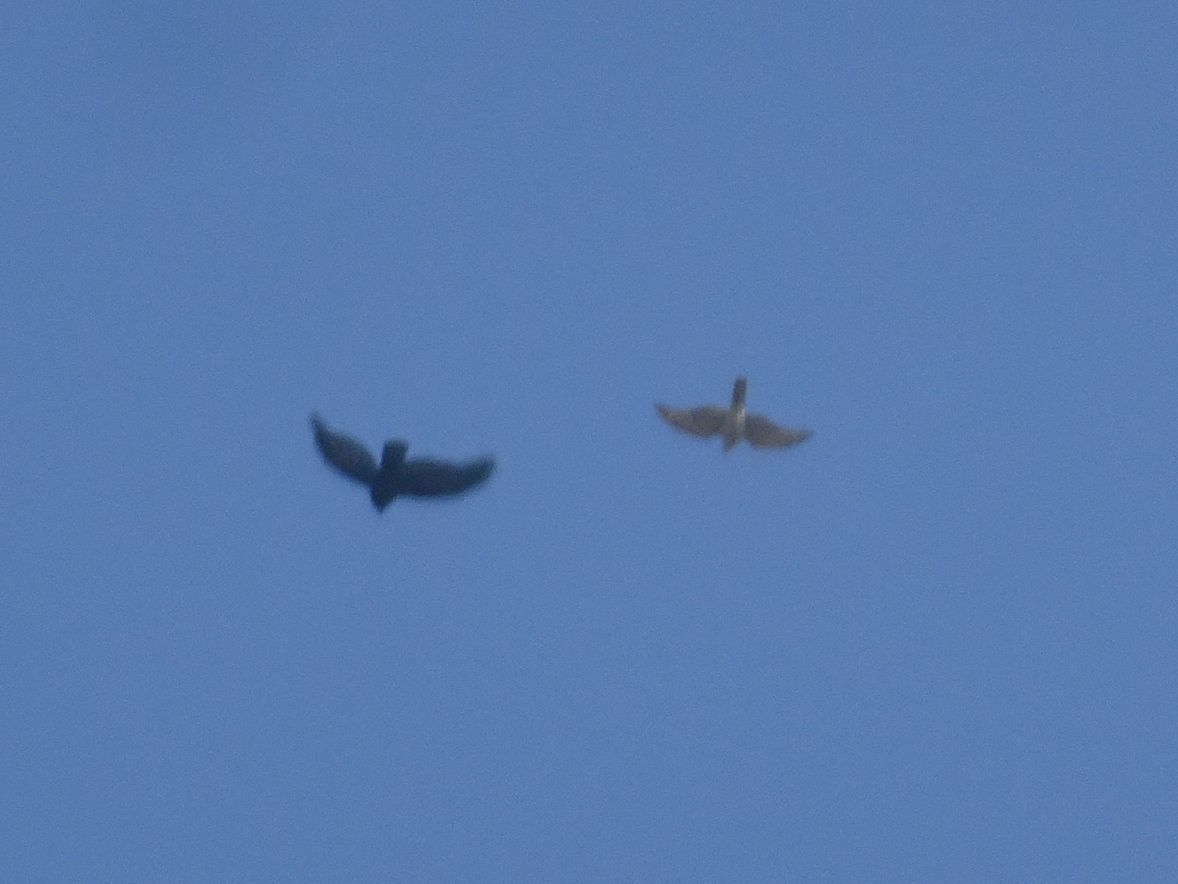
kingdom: Animalia
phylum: Chordata
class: Aves
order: Passeriformes
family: Corvidae
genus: Corvus
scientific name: Corvus corone
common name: Carrion crow
